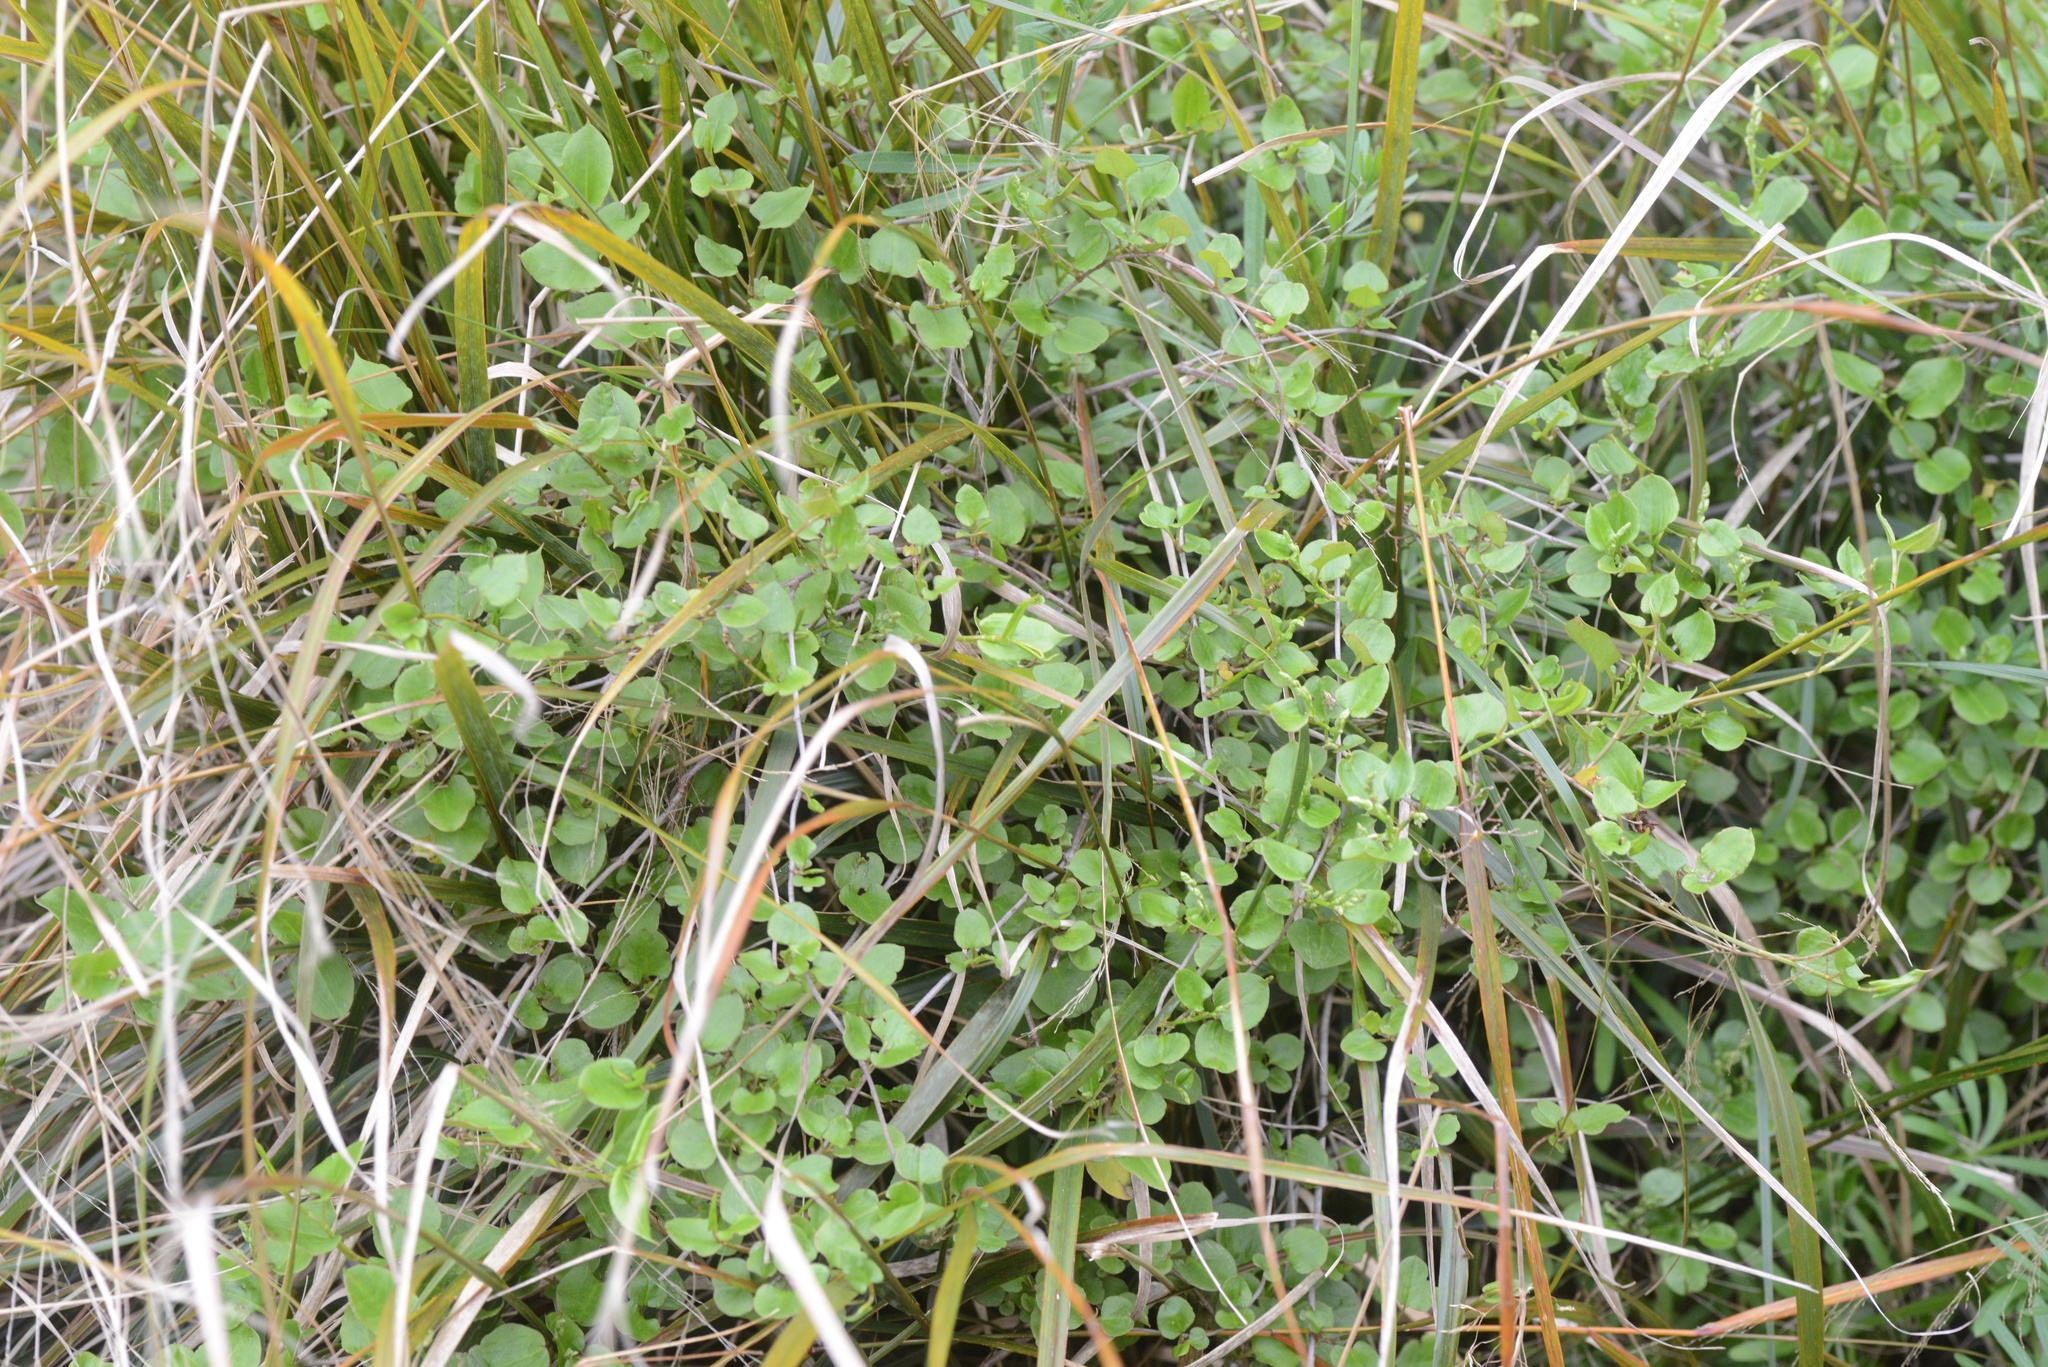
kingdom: Plantae
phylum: Tracheophyta
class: Magnoliopsida
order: Caryophyllales
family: Polygonaceae
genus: Muehlenbeckia
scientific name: Muehlenbeckia australis
